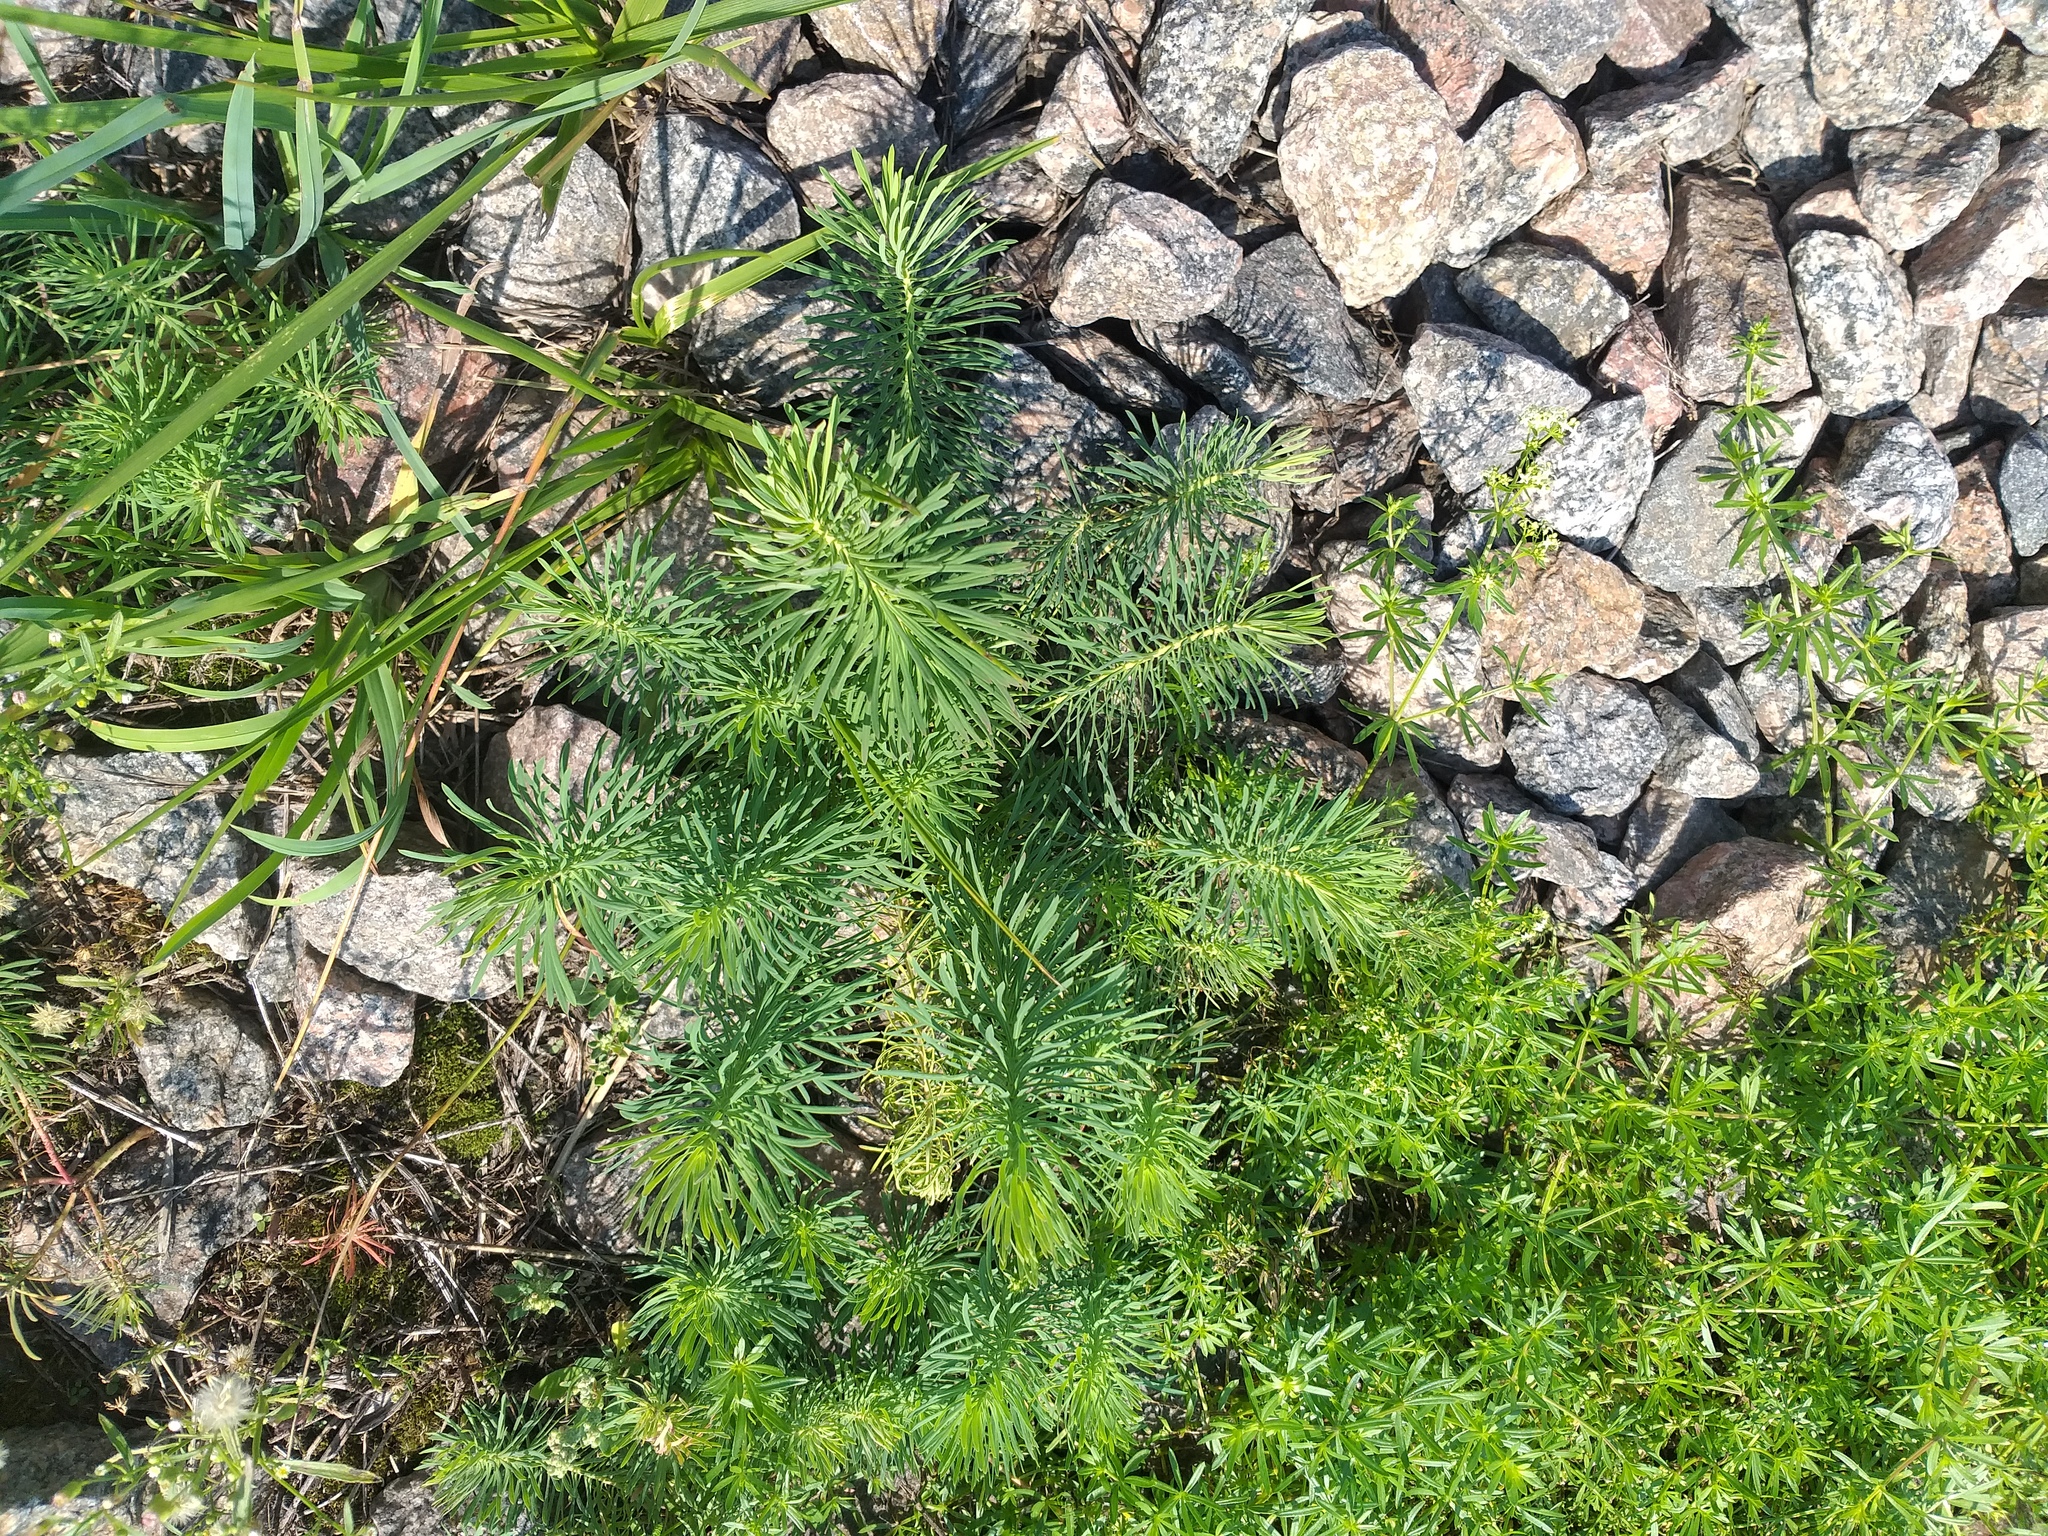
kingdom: Plantae
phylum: Tracheophyta
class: Magnoliopsida
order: Malpighiales
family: Euphorbiaceae
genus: Euphorbia
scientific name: Euphorbia cyparissias
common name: Cypress spurge
